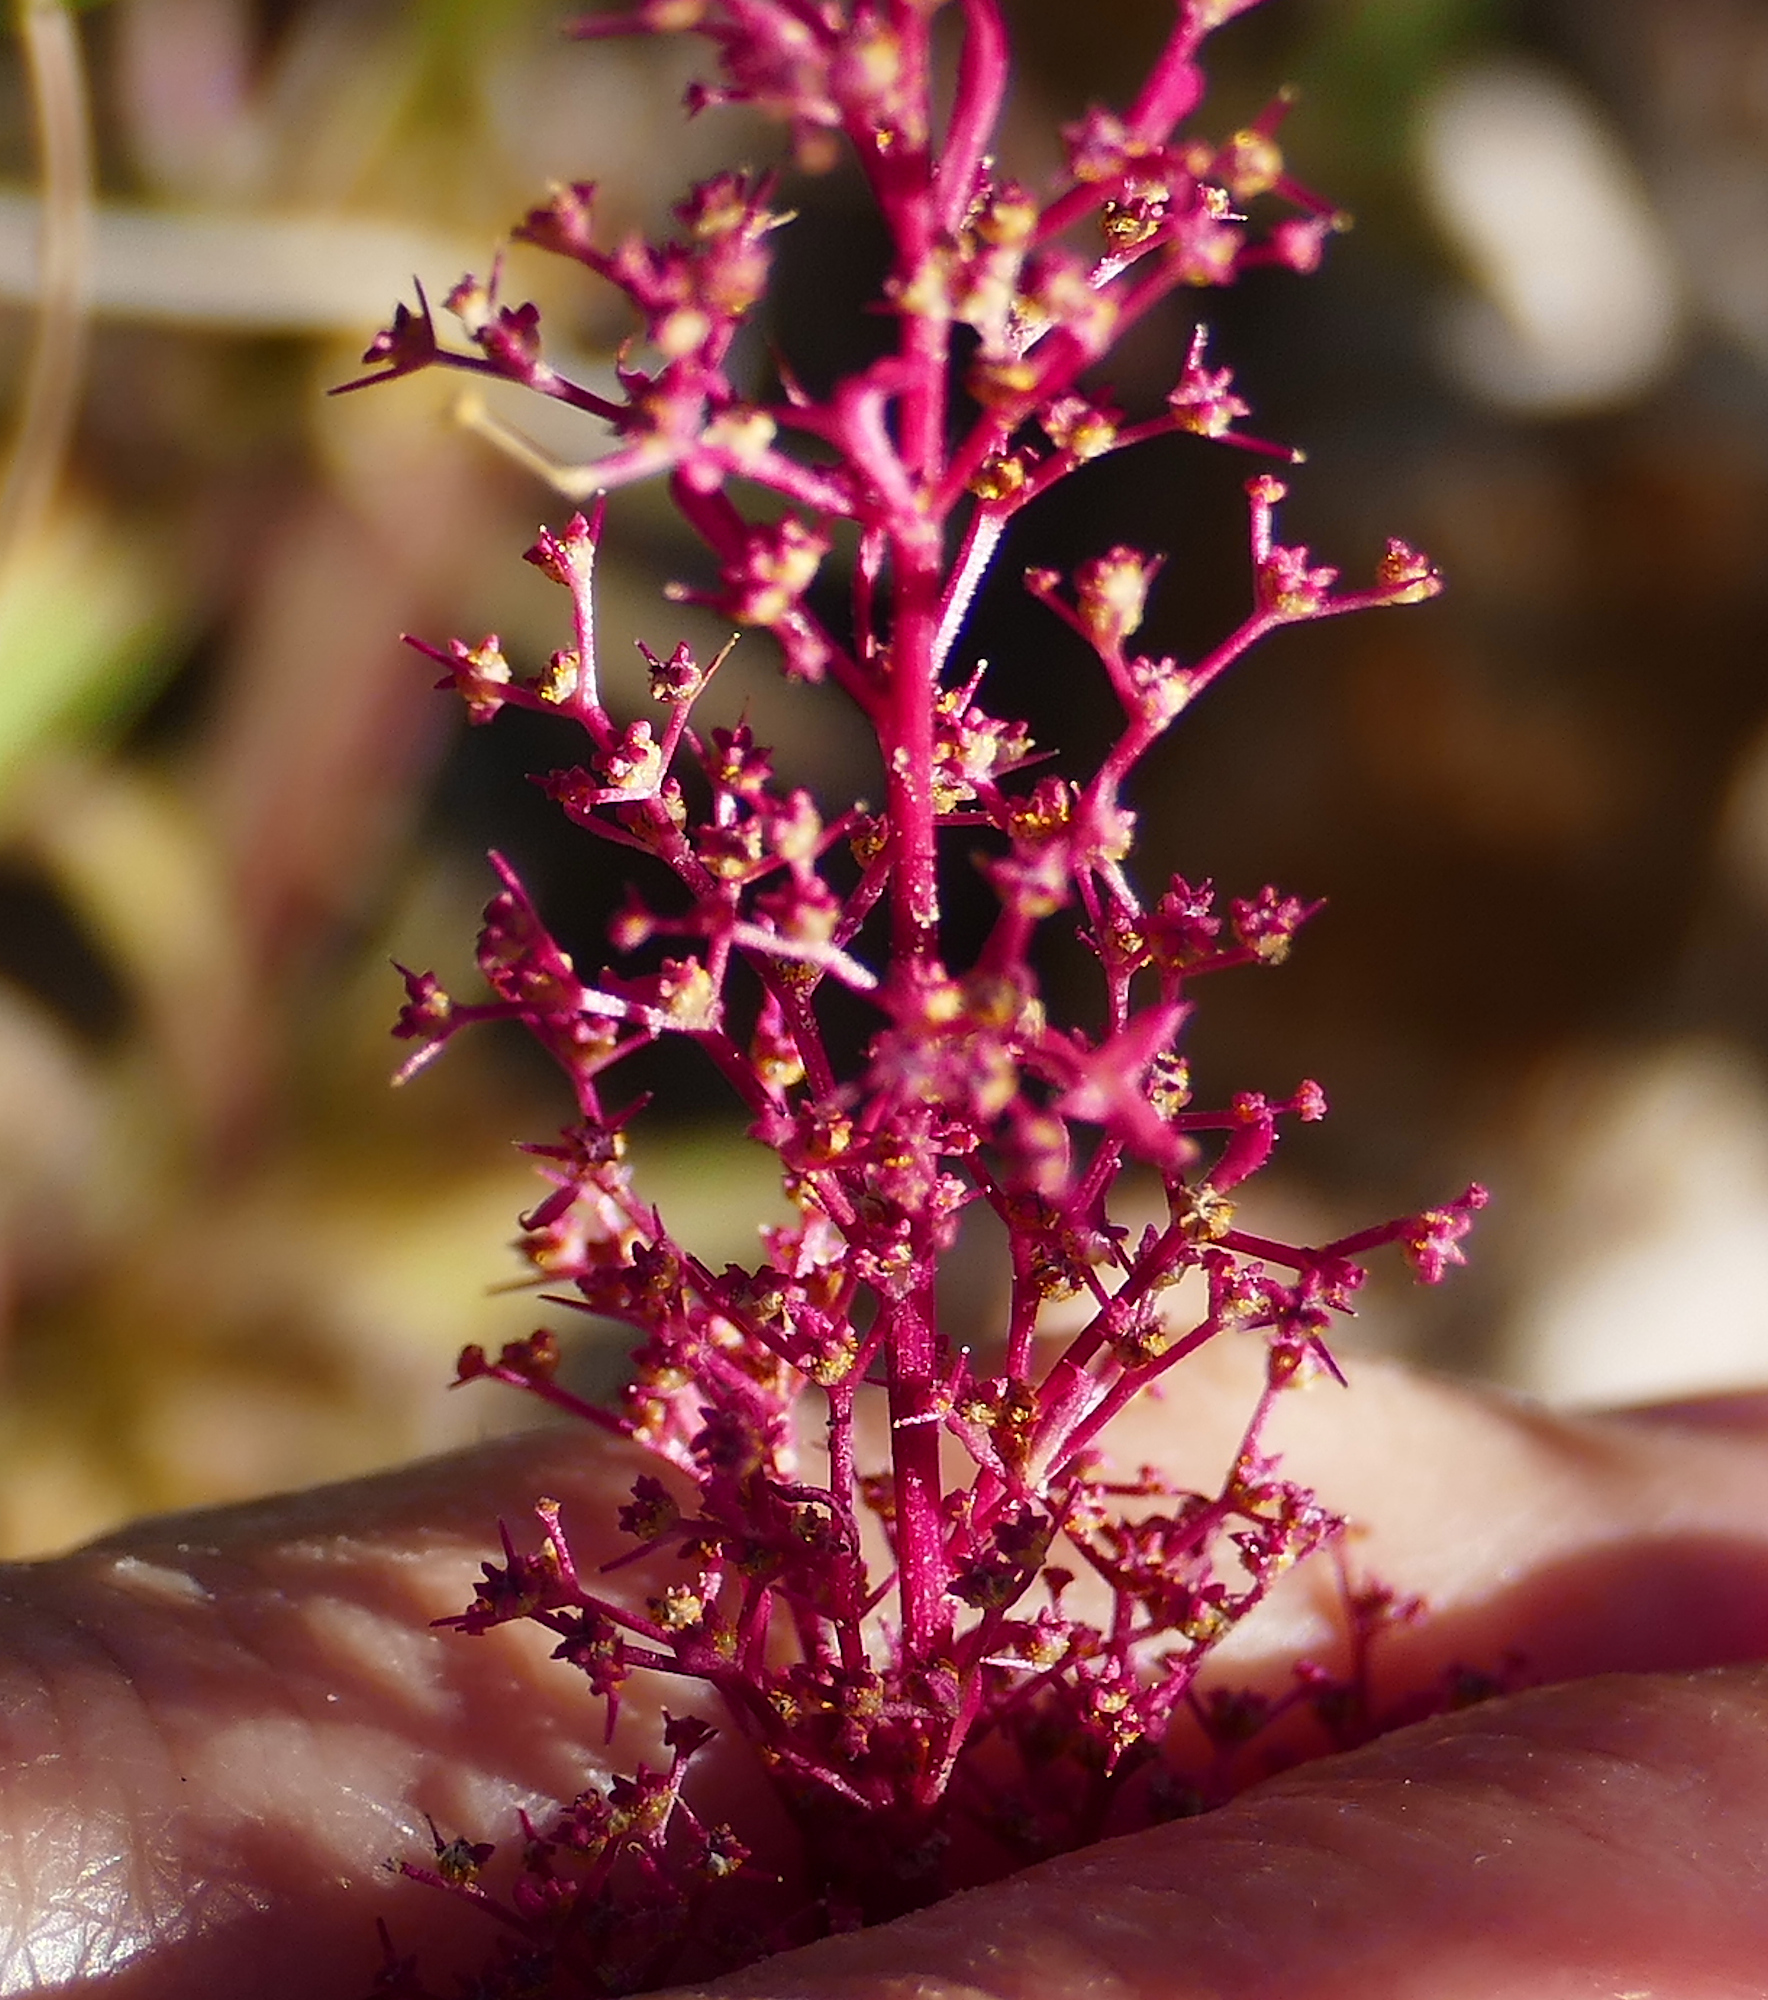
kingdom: Plantae
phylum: Tracheophyta
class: Magnoliopsida
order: Caryophyllales
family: Amaranthaceae
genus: Dysphania
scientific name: Dysphania incisa
